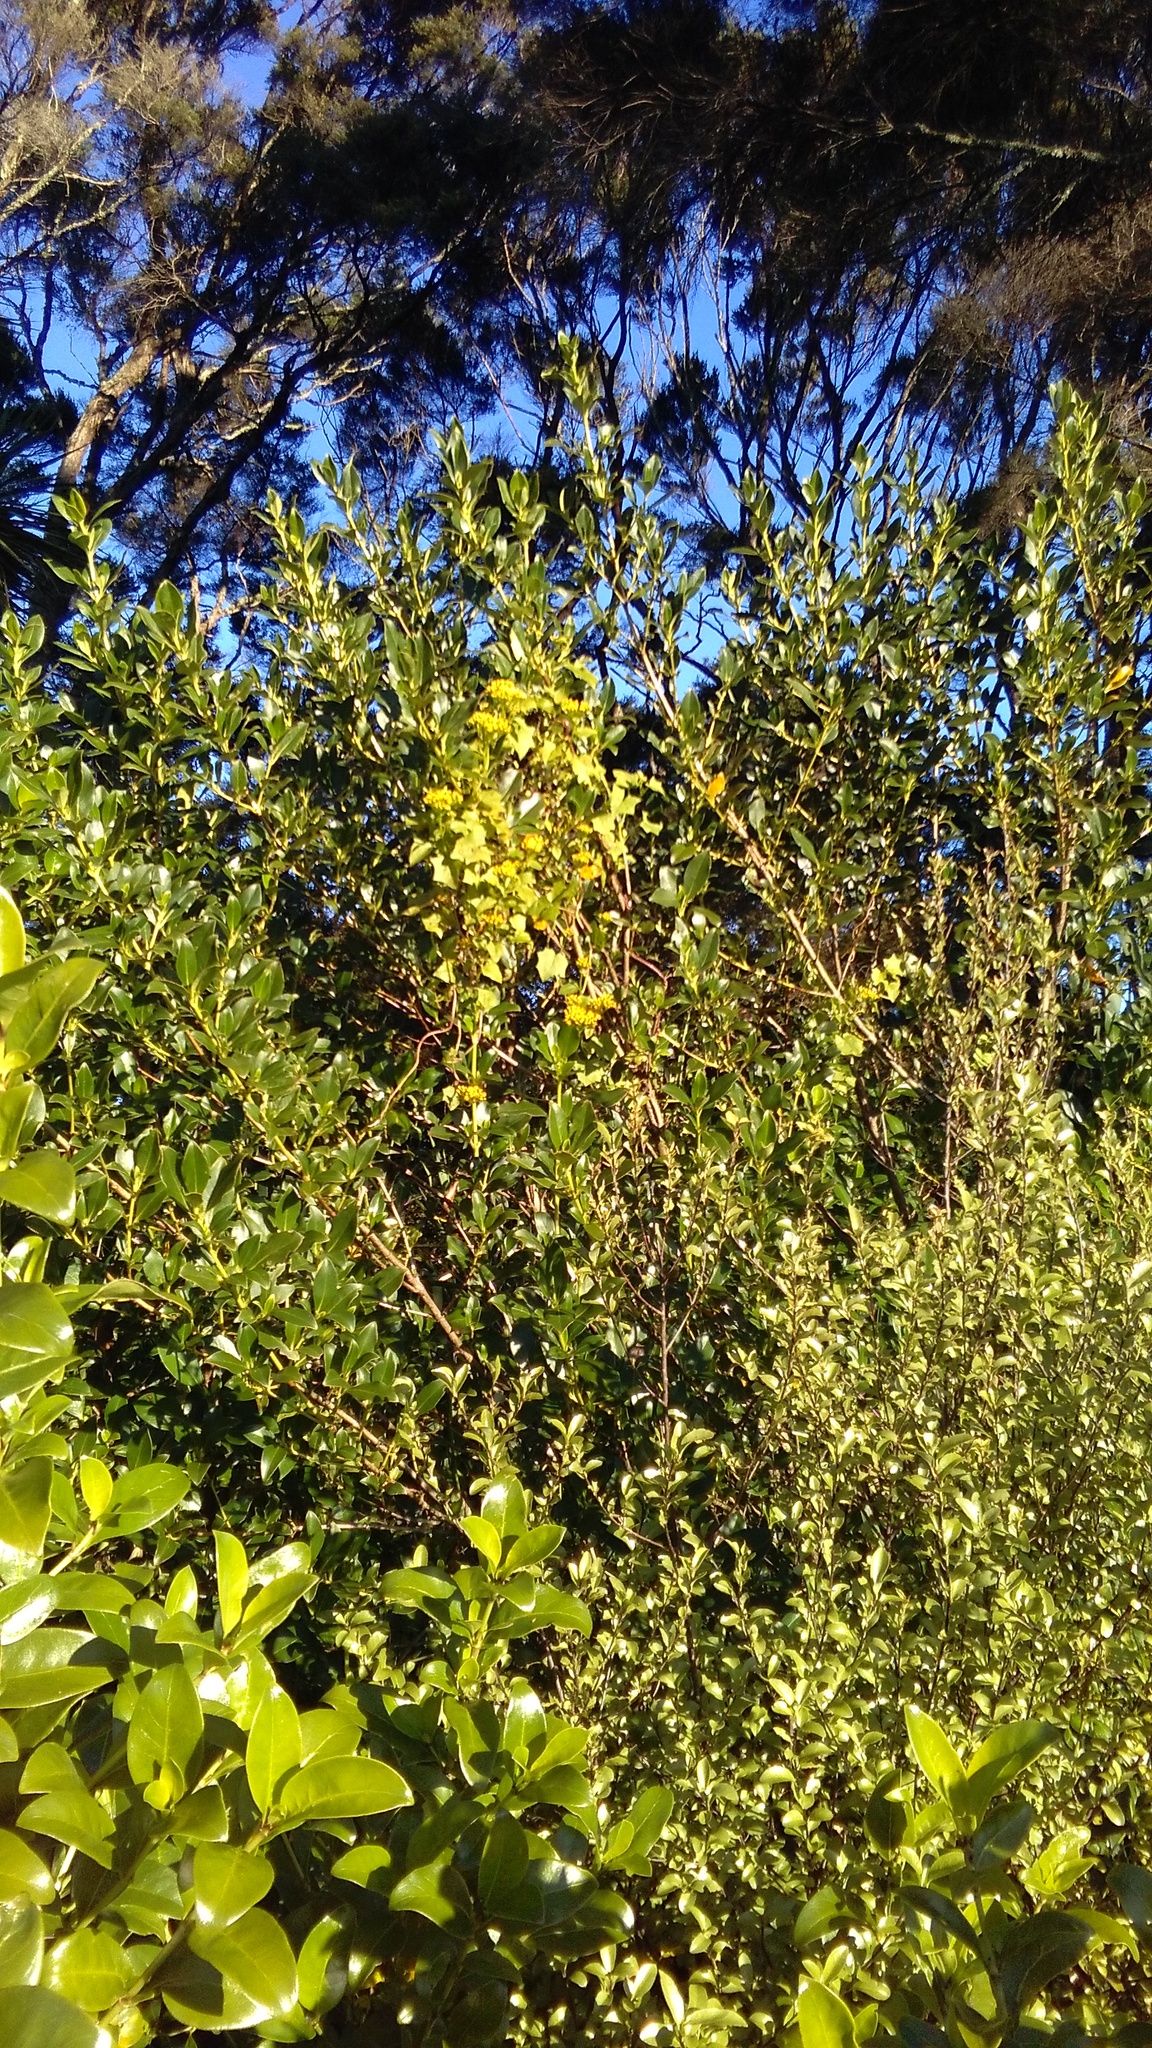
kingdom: Plantae
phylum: Tracheophyta
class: Magnoliopsida
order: Asterales
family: Asteraceae
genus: Delairea
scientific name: Delairea odorata
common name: Cape-ivy
